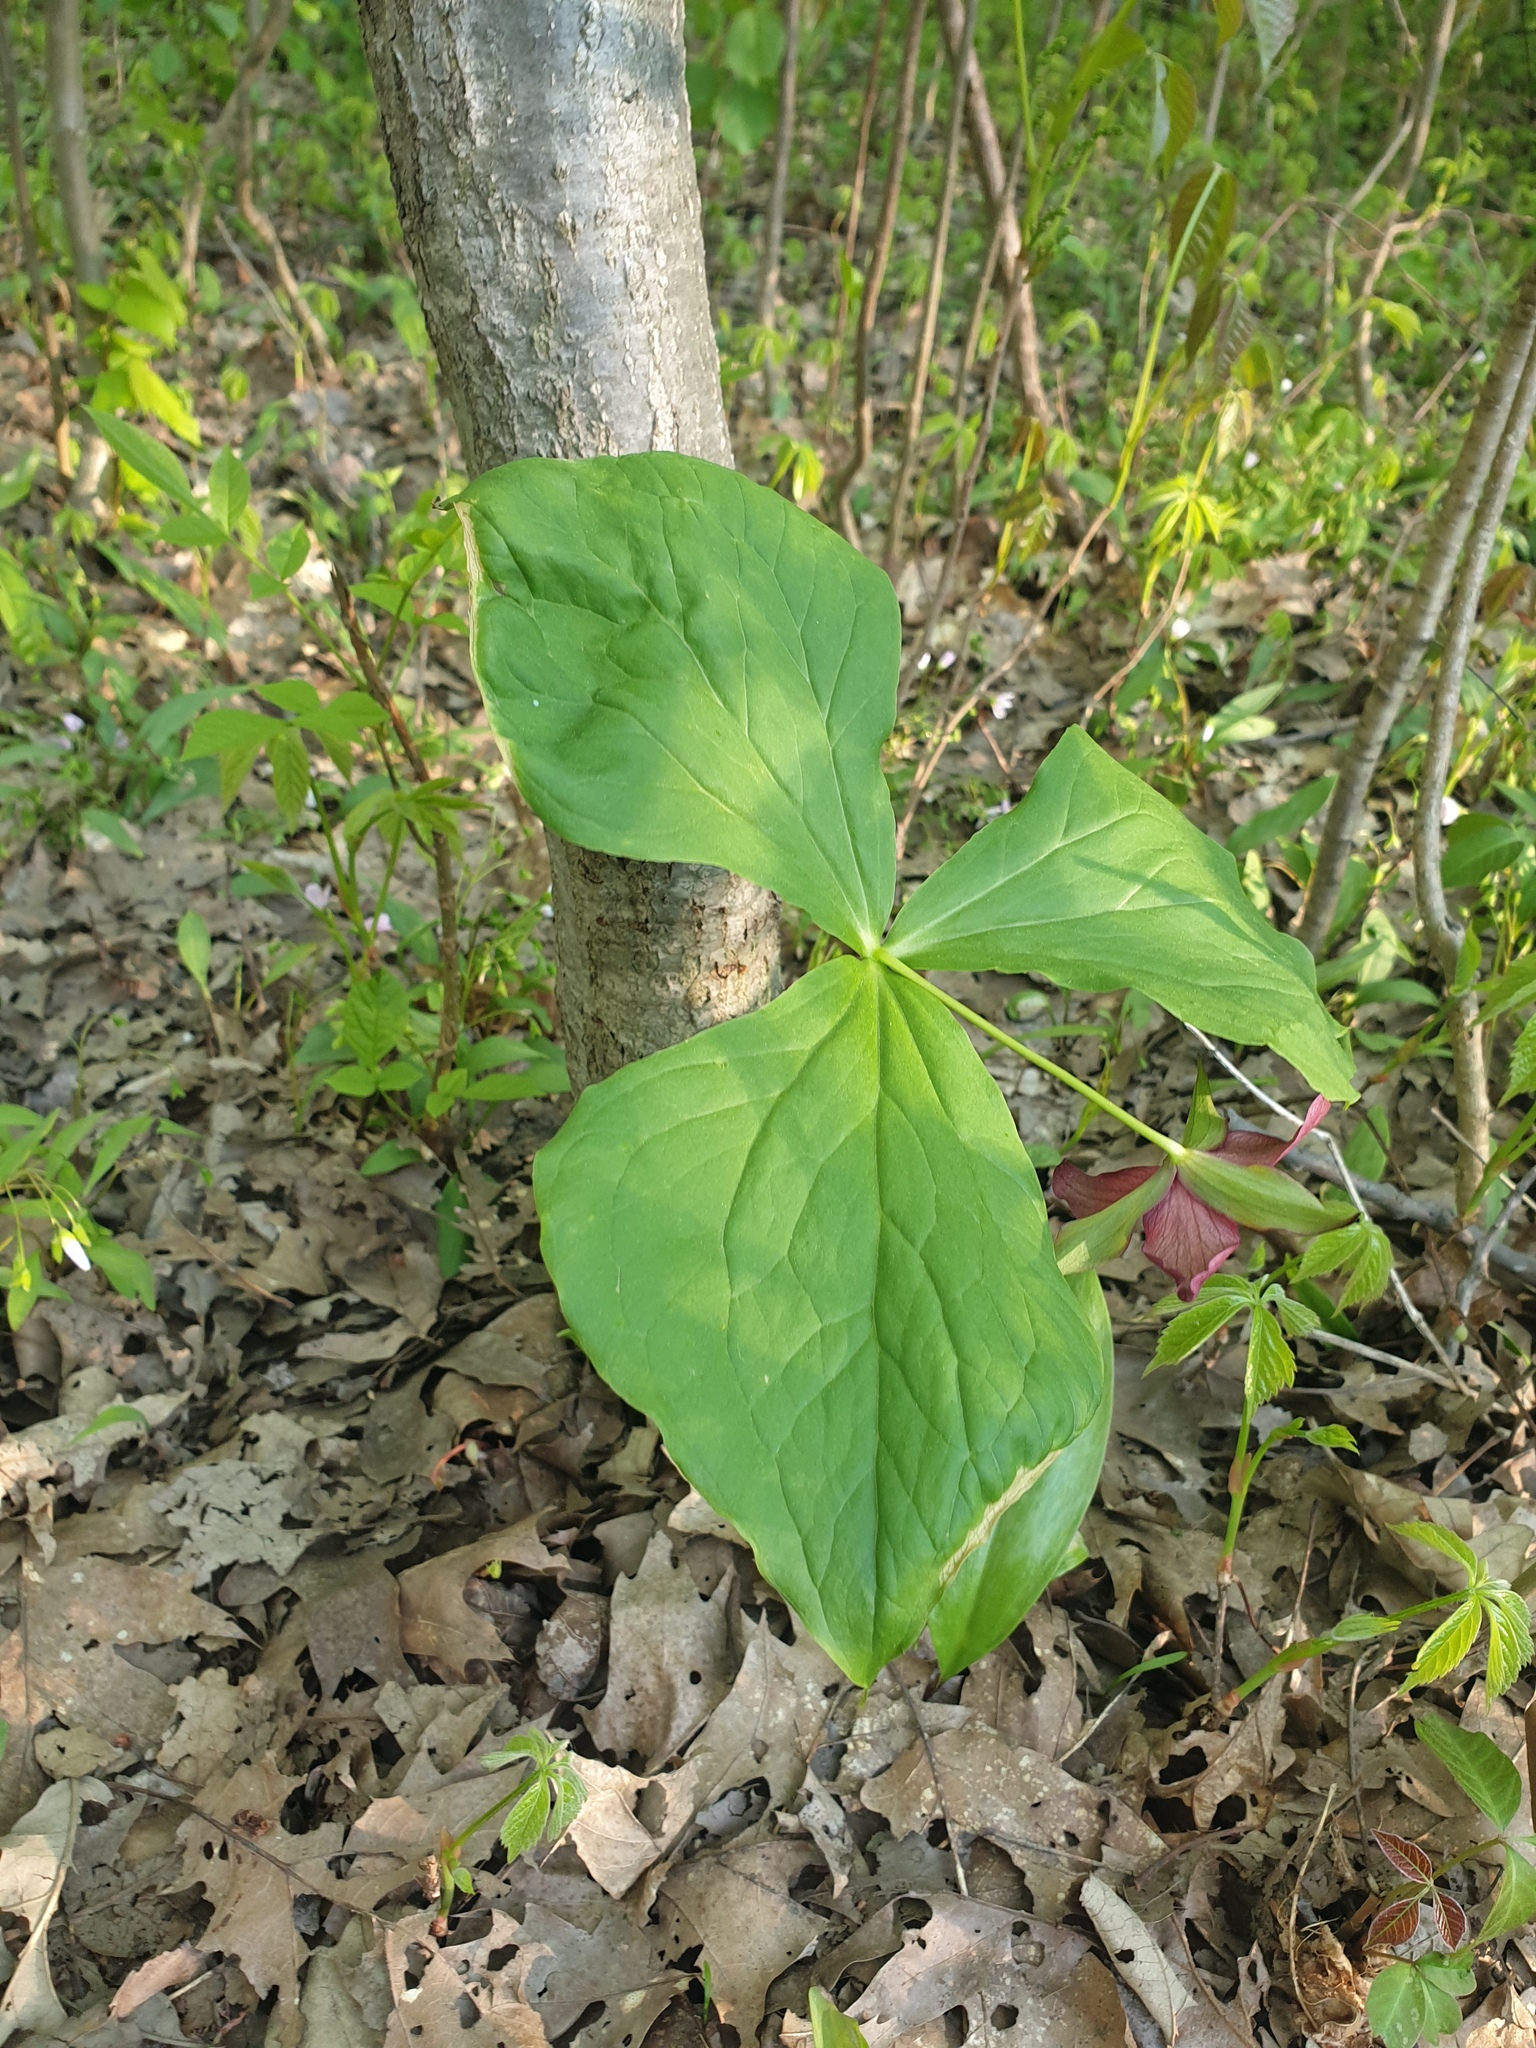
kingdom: Plantae
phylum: Tracheophyta
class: Liliopsida
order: Liliales
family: Melanthiaceae
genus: Trillium
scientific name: Trillium erectum
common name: Purple trillium
